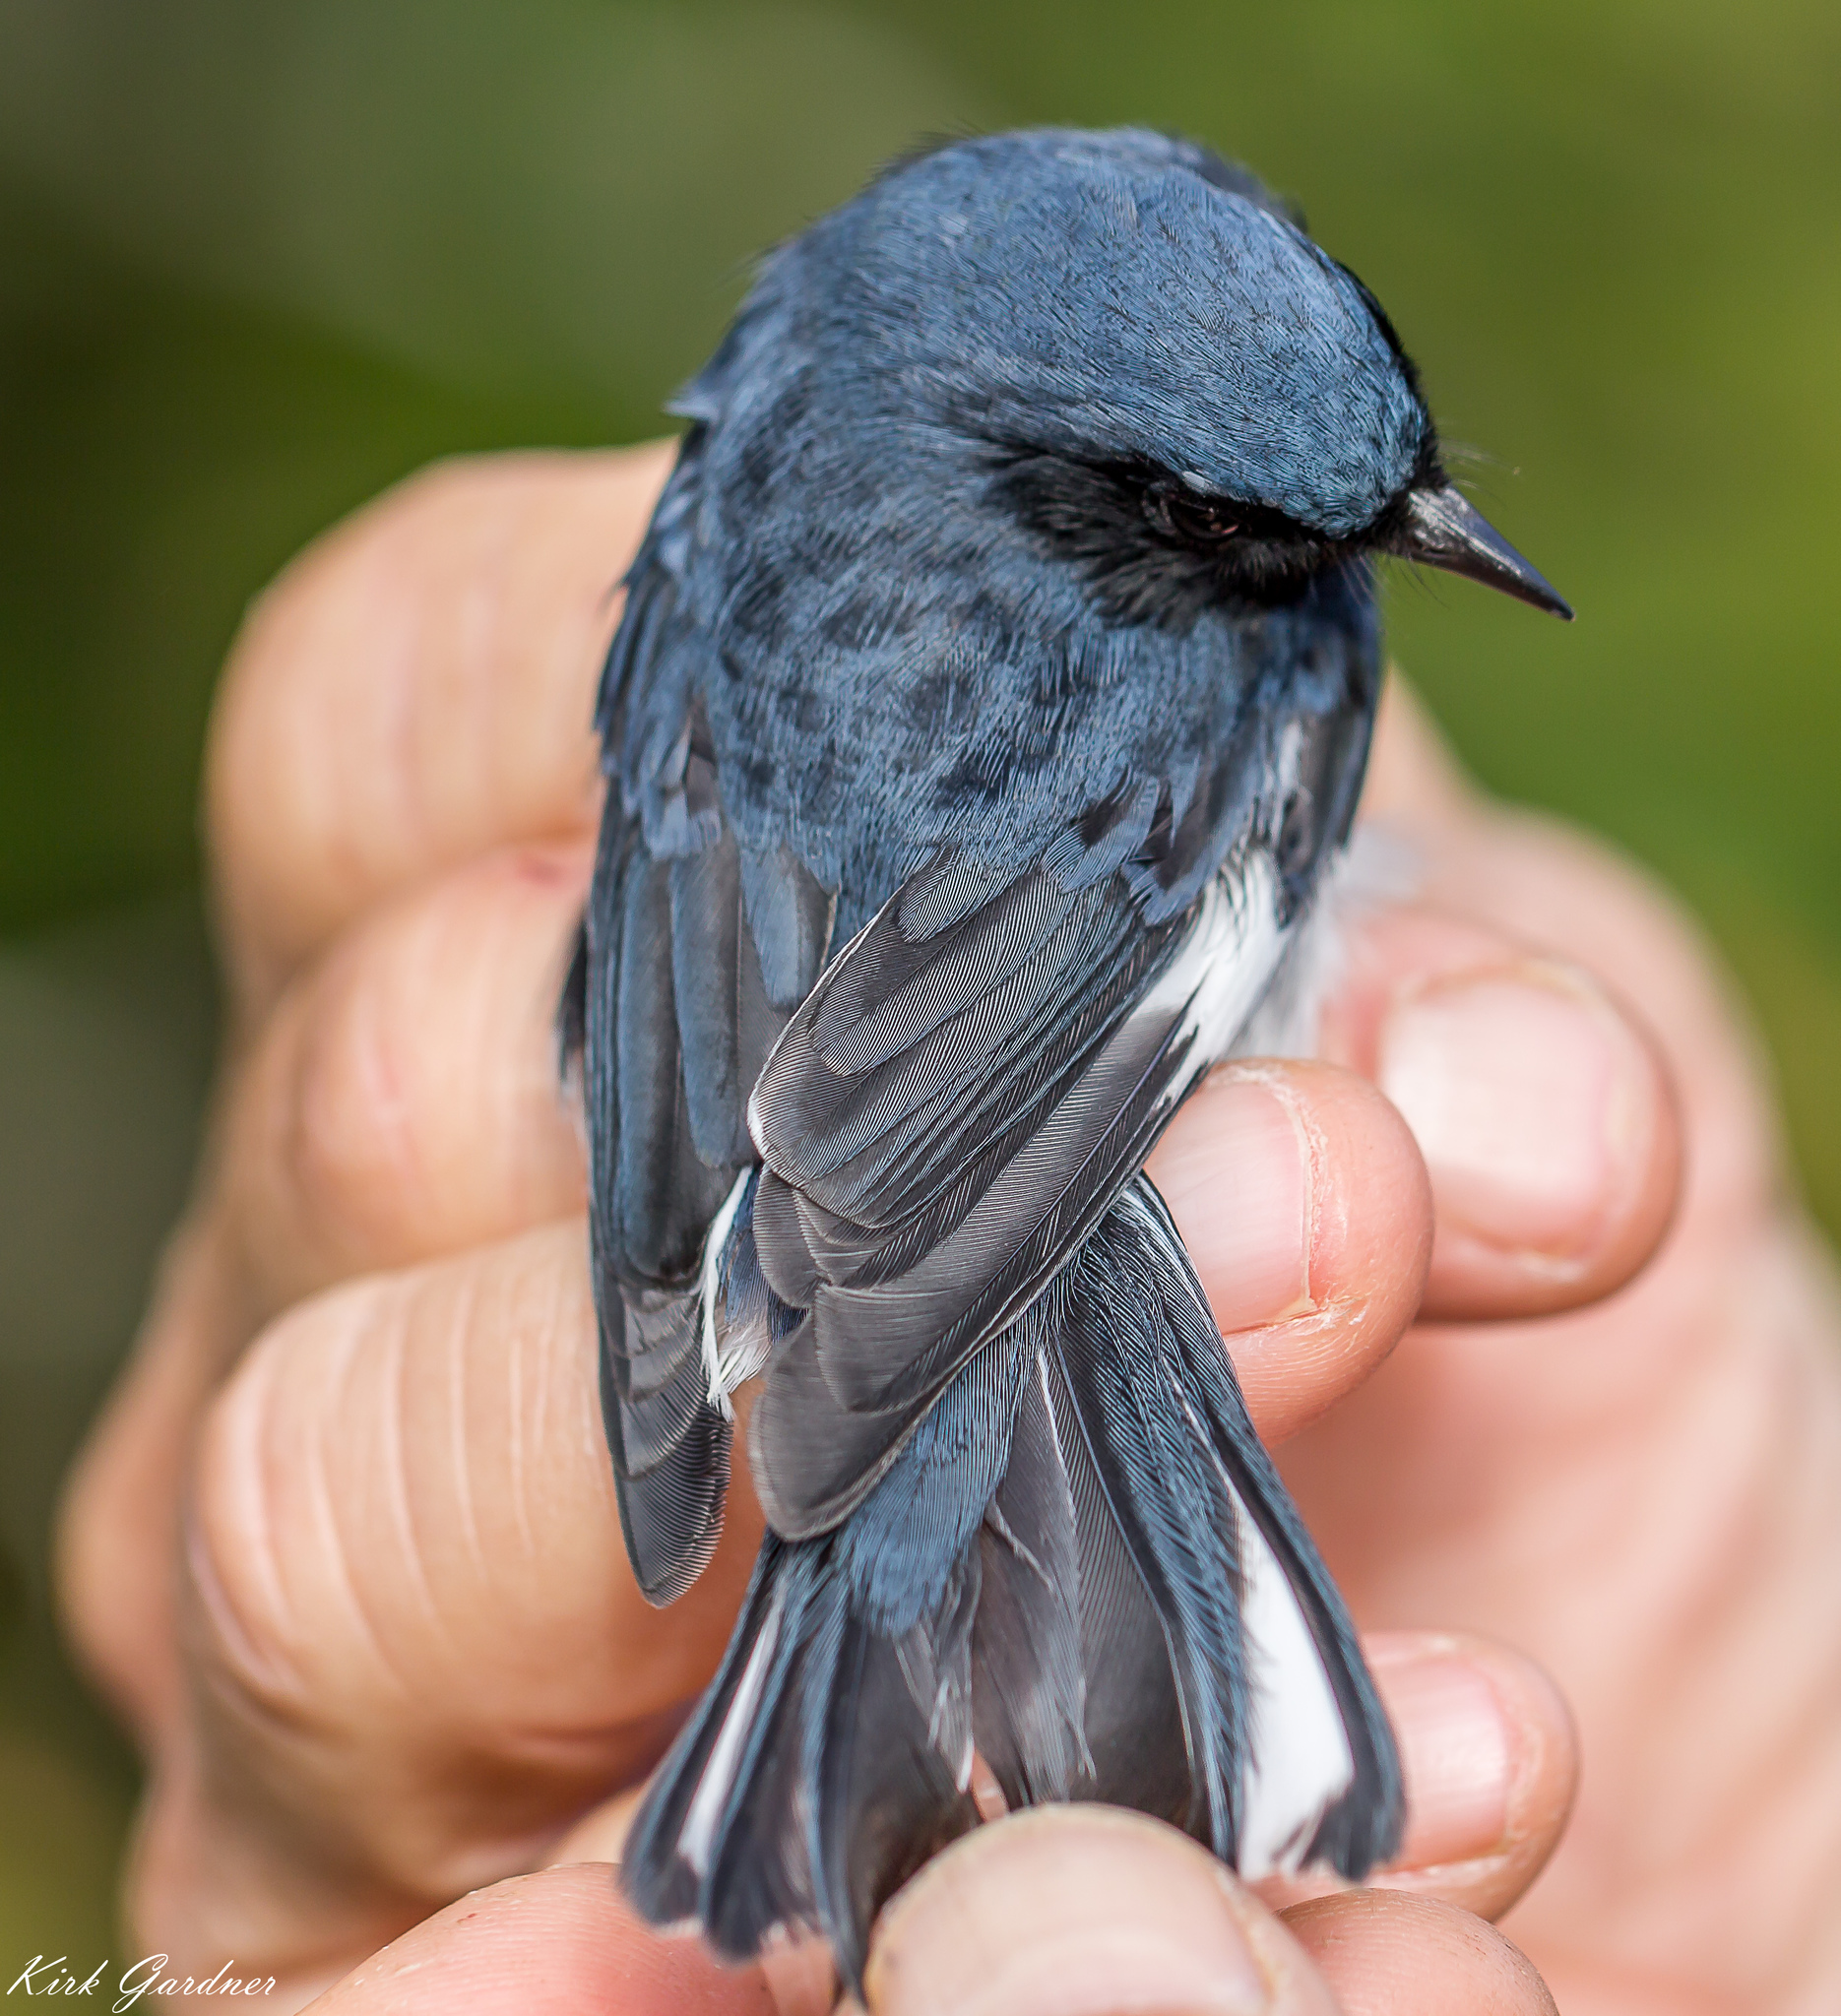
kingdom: Animalia
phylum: Chordata
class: Aves
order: Passeriformes
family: Parulidae
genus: Setophaga
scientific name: Setophaga caerulescens
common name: Black-throated blue warbler
